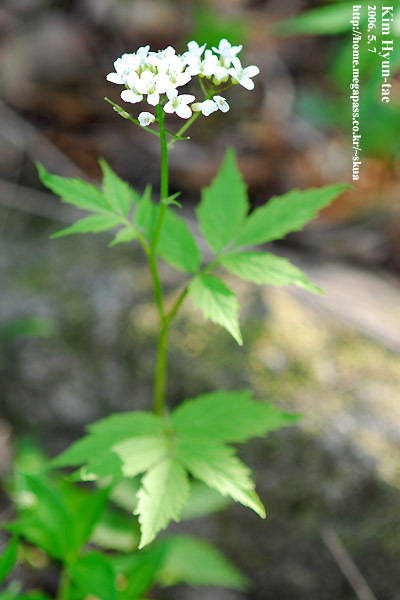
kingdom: Plantae
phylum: Tracheophyta
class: Magnoliopsida
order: Brassicales
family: Brassicaceae
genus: Cardamine
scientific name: Cardamine leucantha
